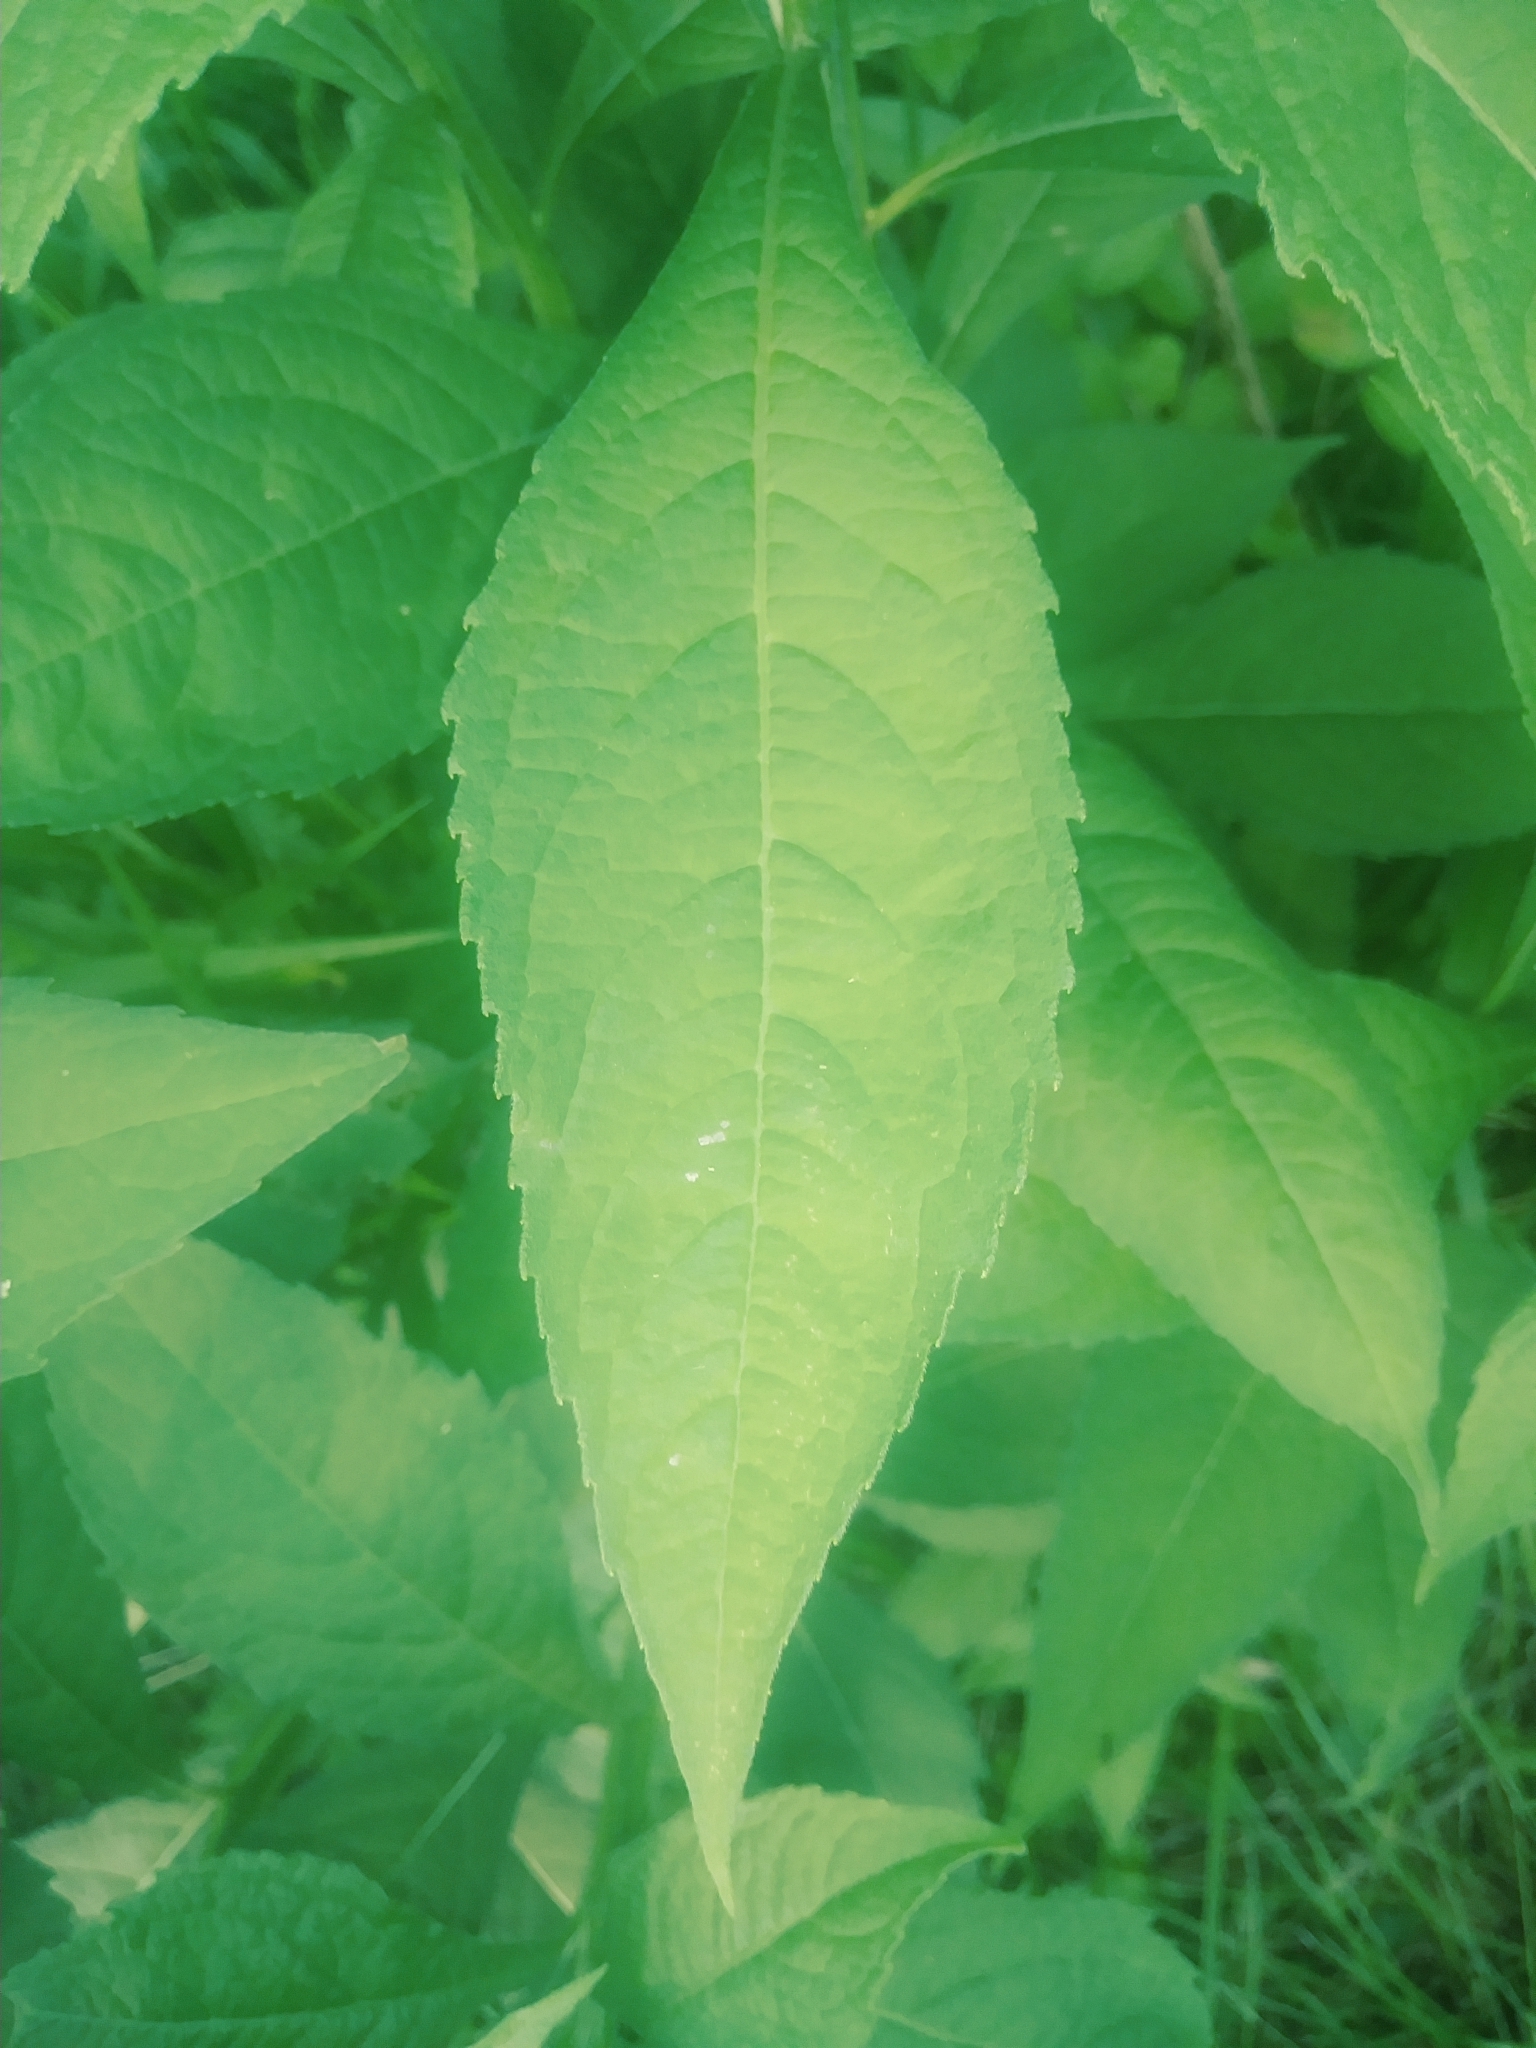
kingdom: Plantae
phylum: Tracheophyta
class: Magnoliopsida
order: Asterales
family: Asteraceae
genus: Verbesina
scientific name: Verbesina alternifolia
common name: Wingstem
